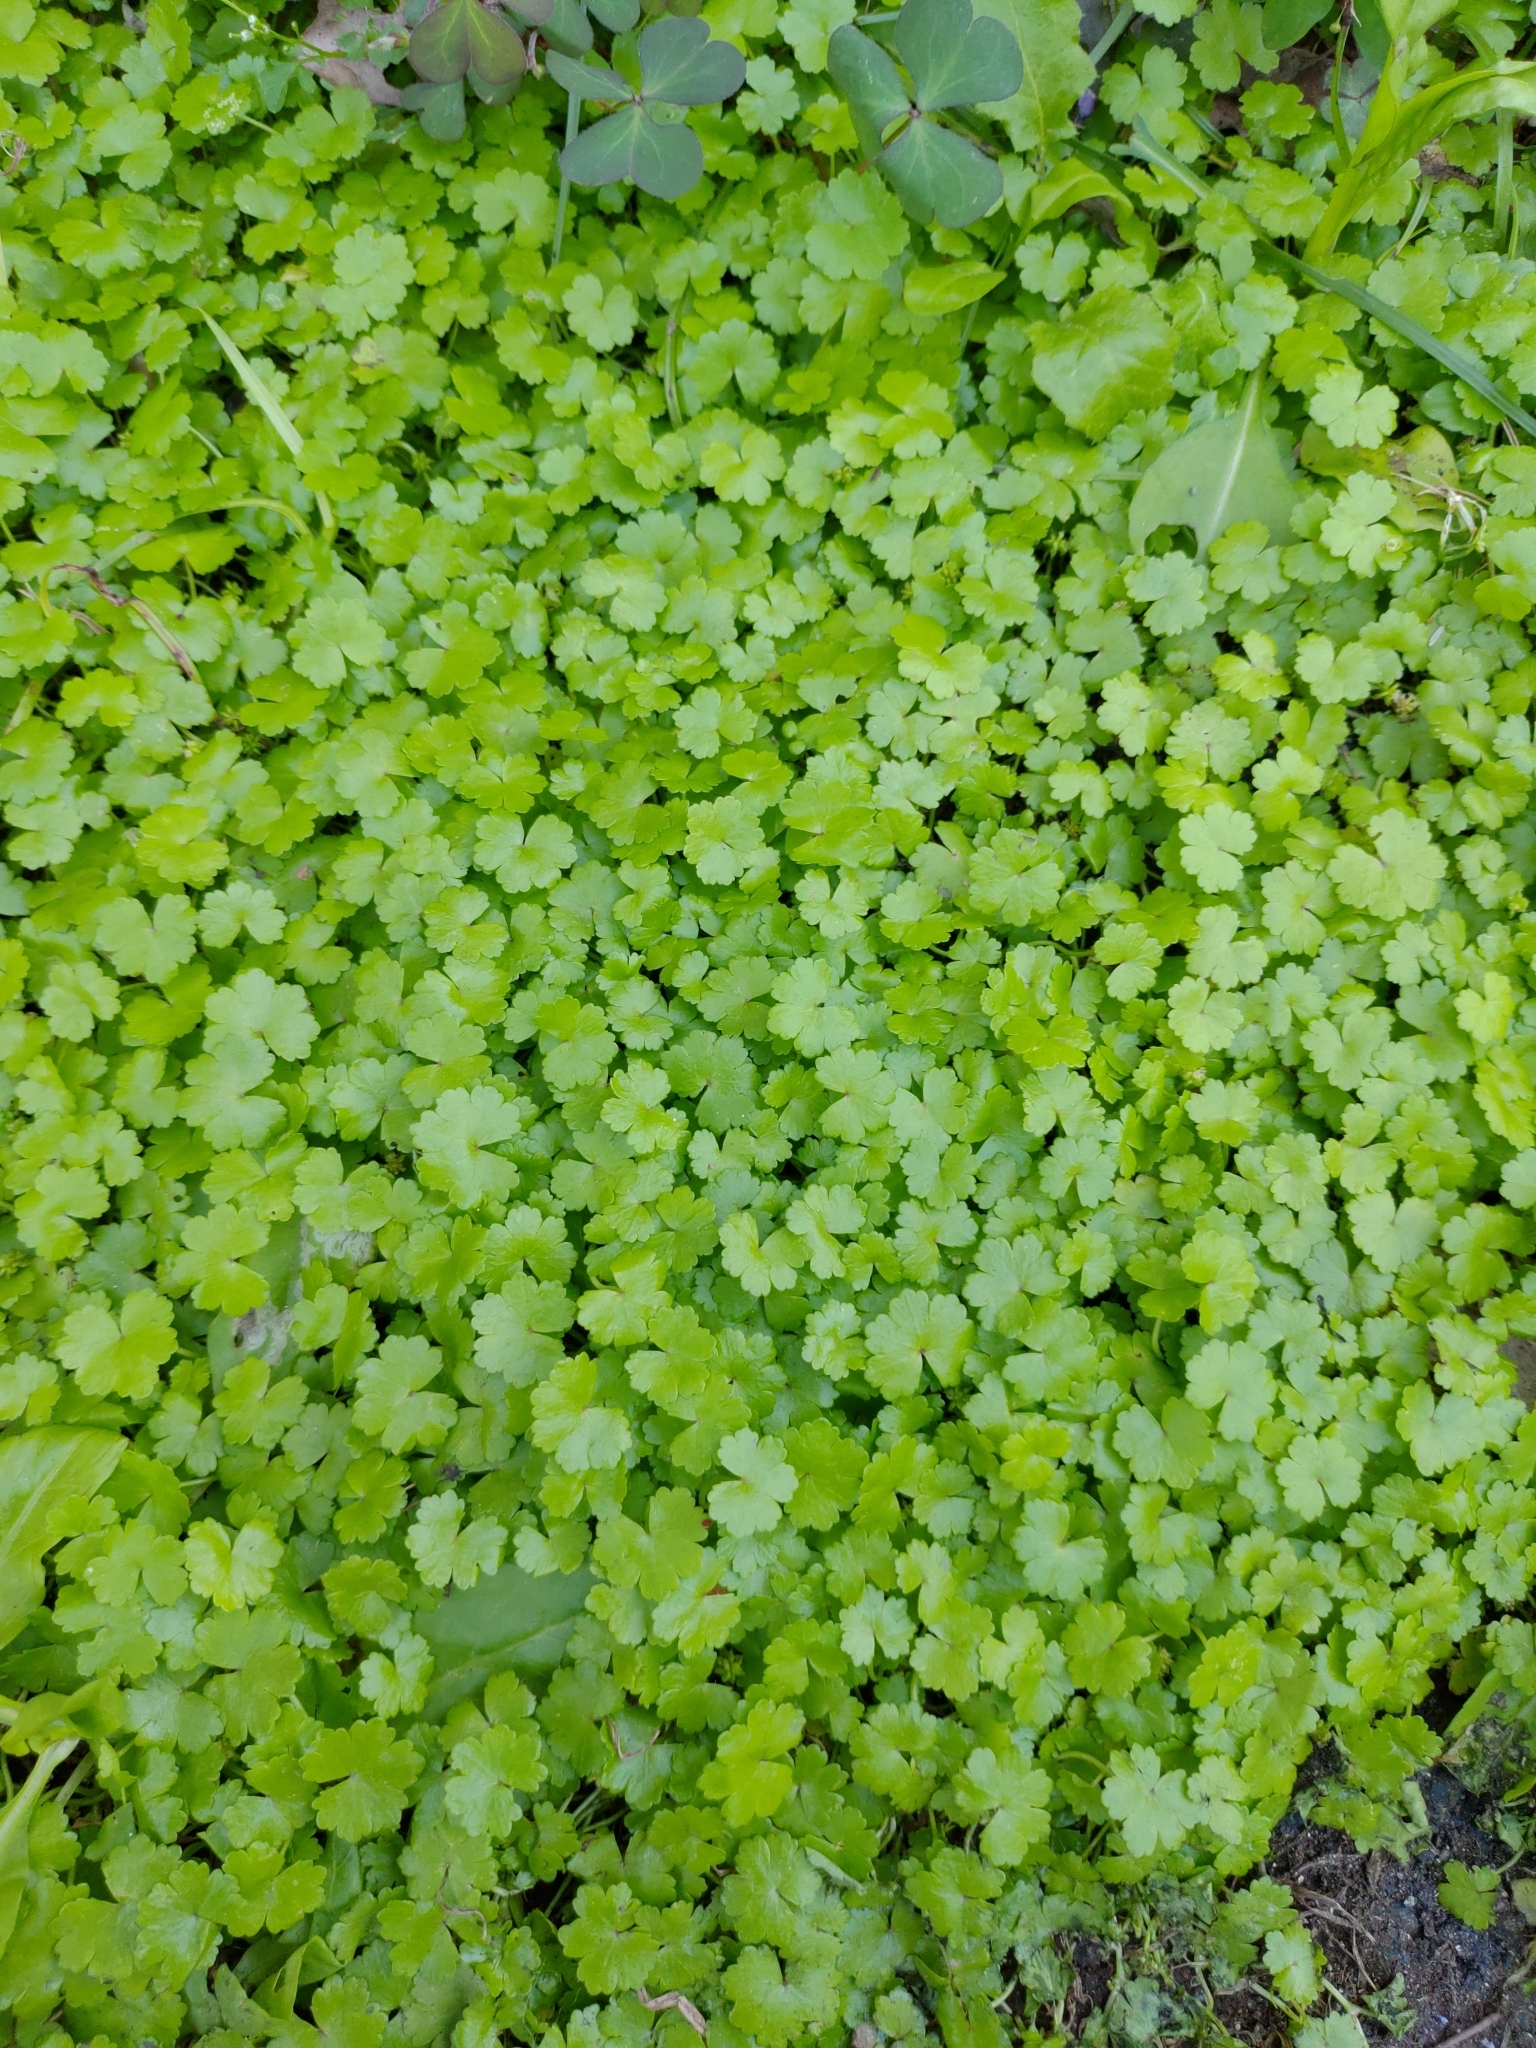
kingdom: Plantae
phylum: Tracheophyta
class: Magnoliopsida
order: Apiales
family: Araliaceae
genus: Hydrocotyle
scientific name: Hydrocotyle sibthorpioides
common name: Lawn marshpennywort
